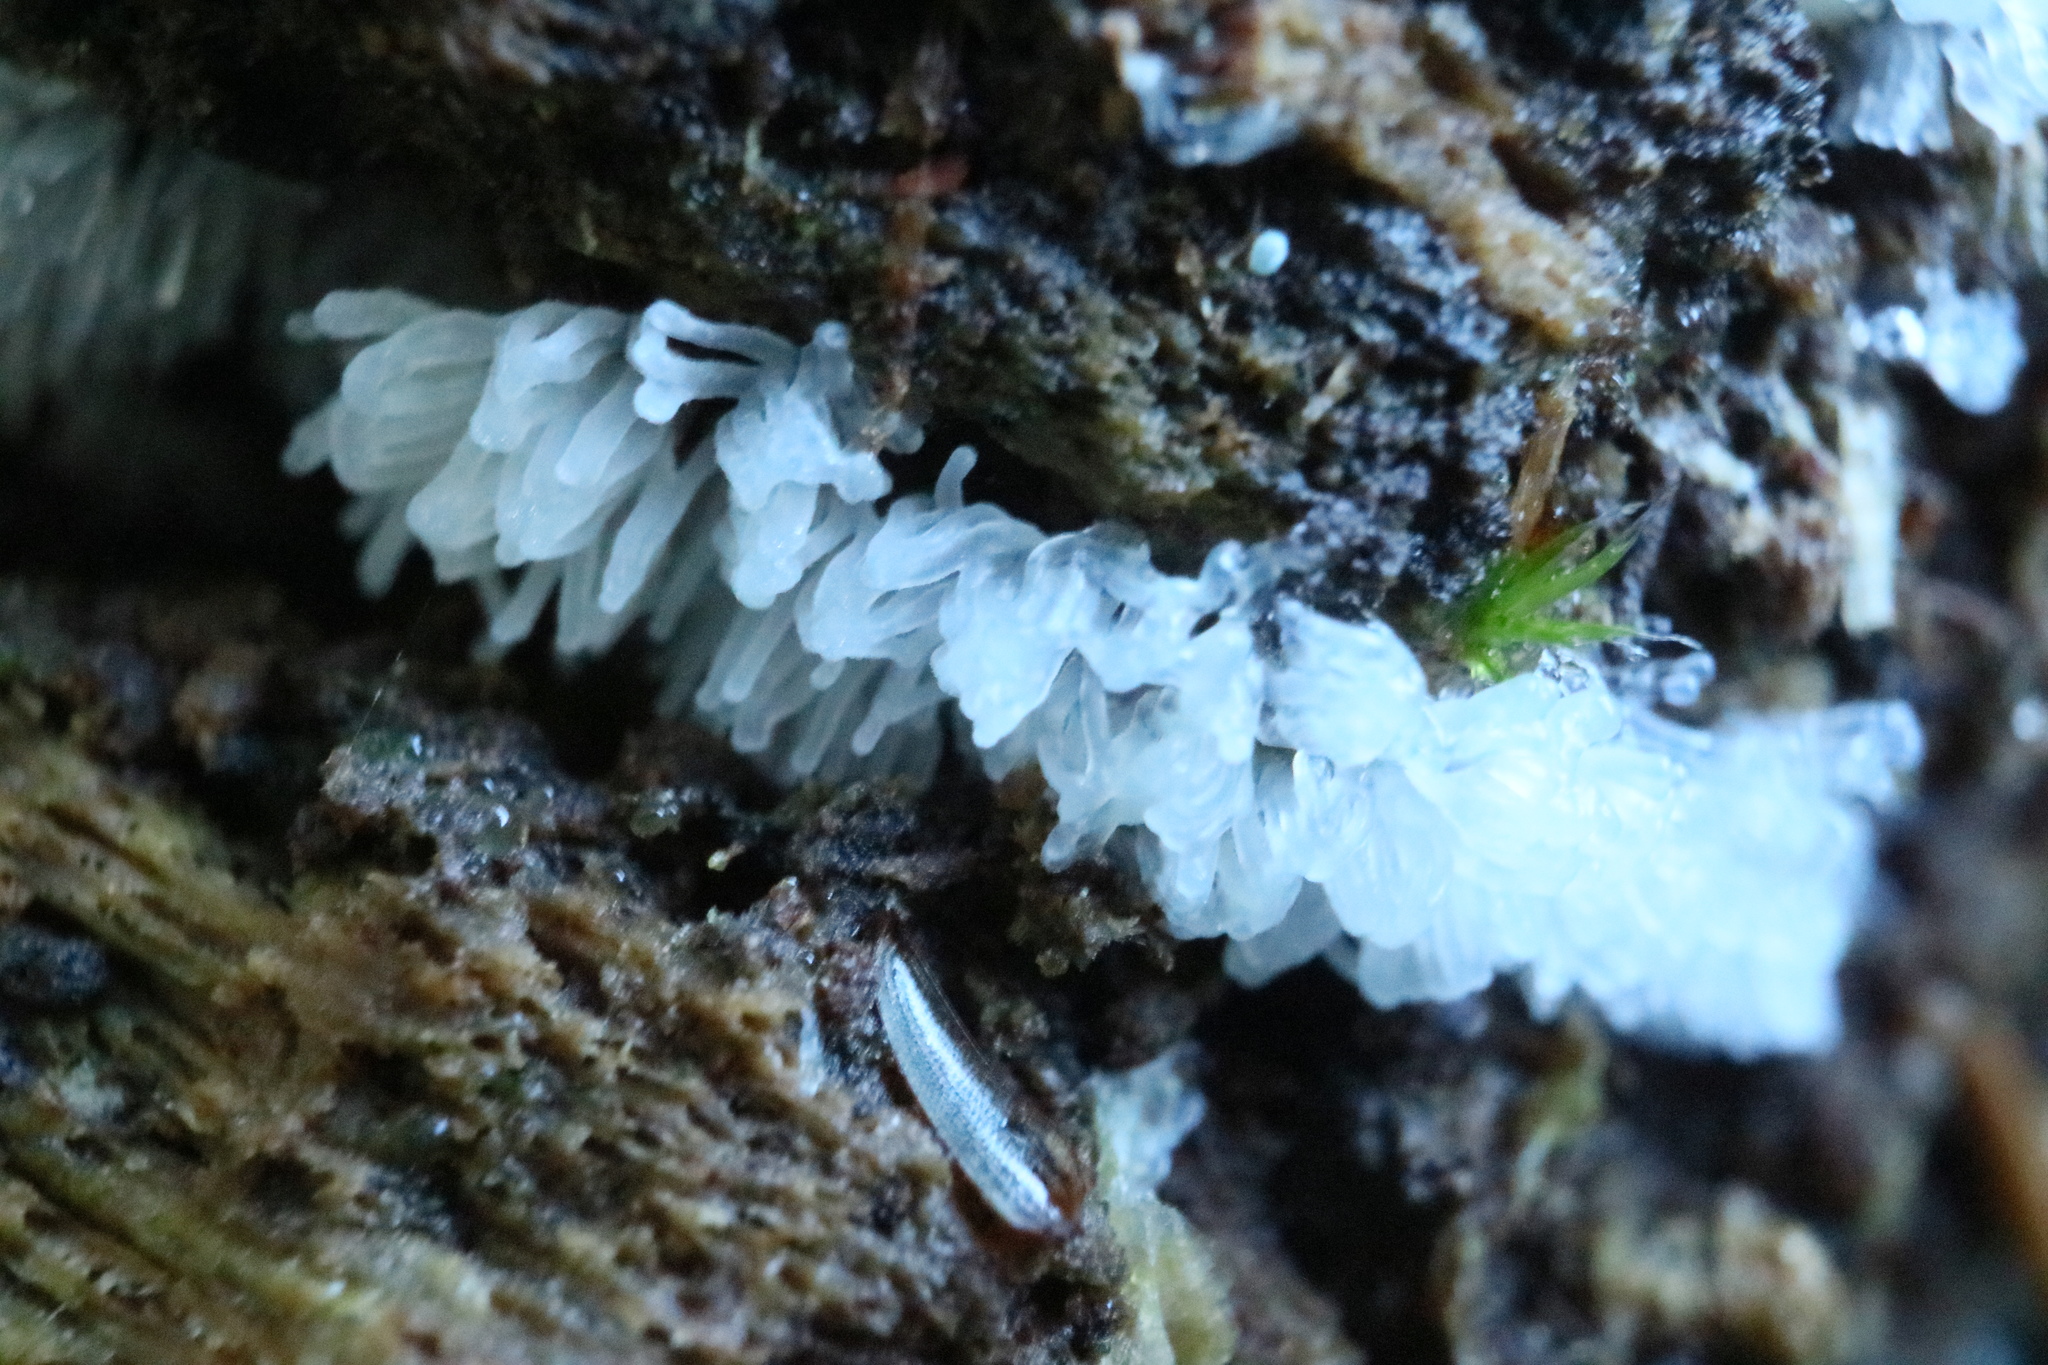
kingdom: Protozoa
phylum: Mycetozoa
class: Protosteliomycetes
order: Ceratiomyxales
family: Ceratiomyxaceae
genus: Ceratiomyxa
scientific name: Ceratiomyxa fruticulosa
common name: Honeycomb coral slime mold
